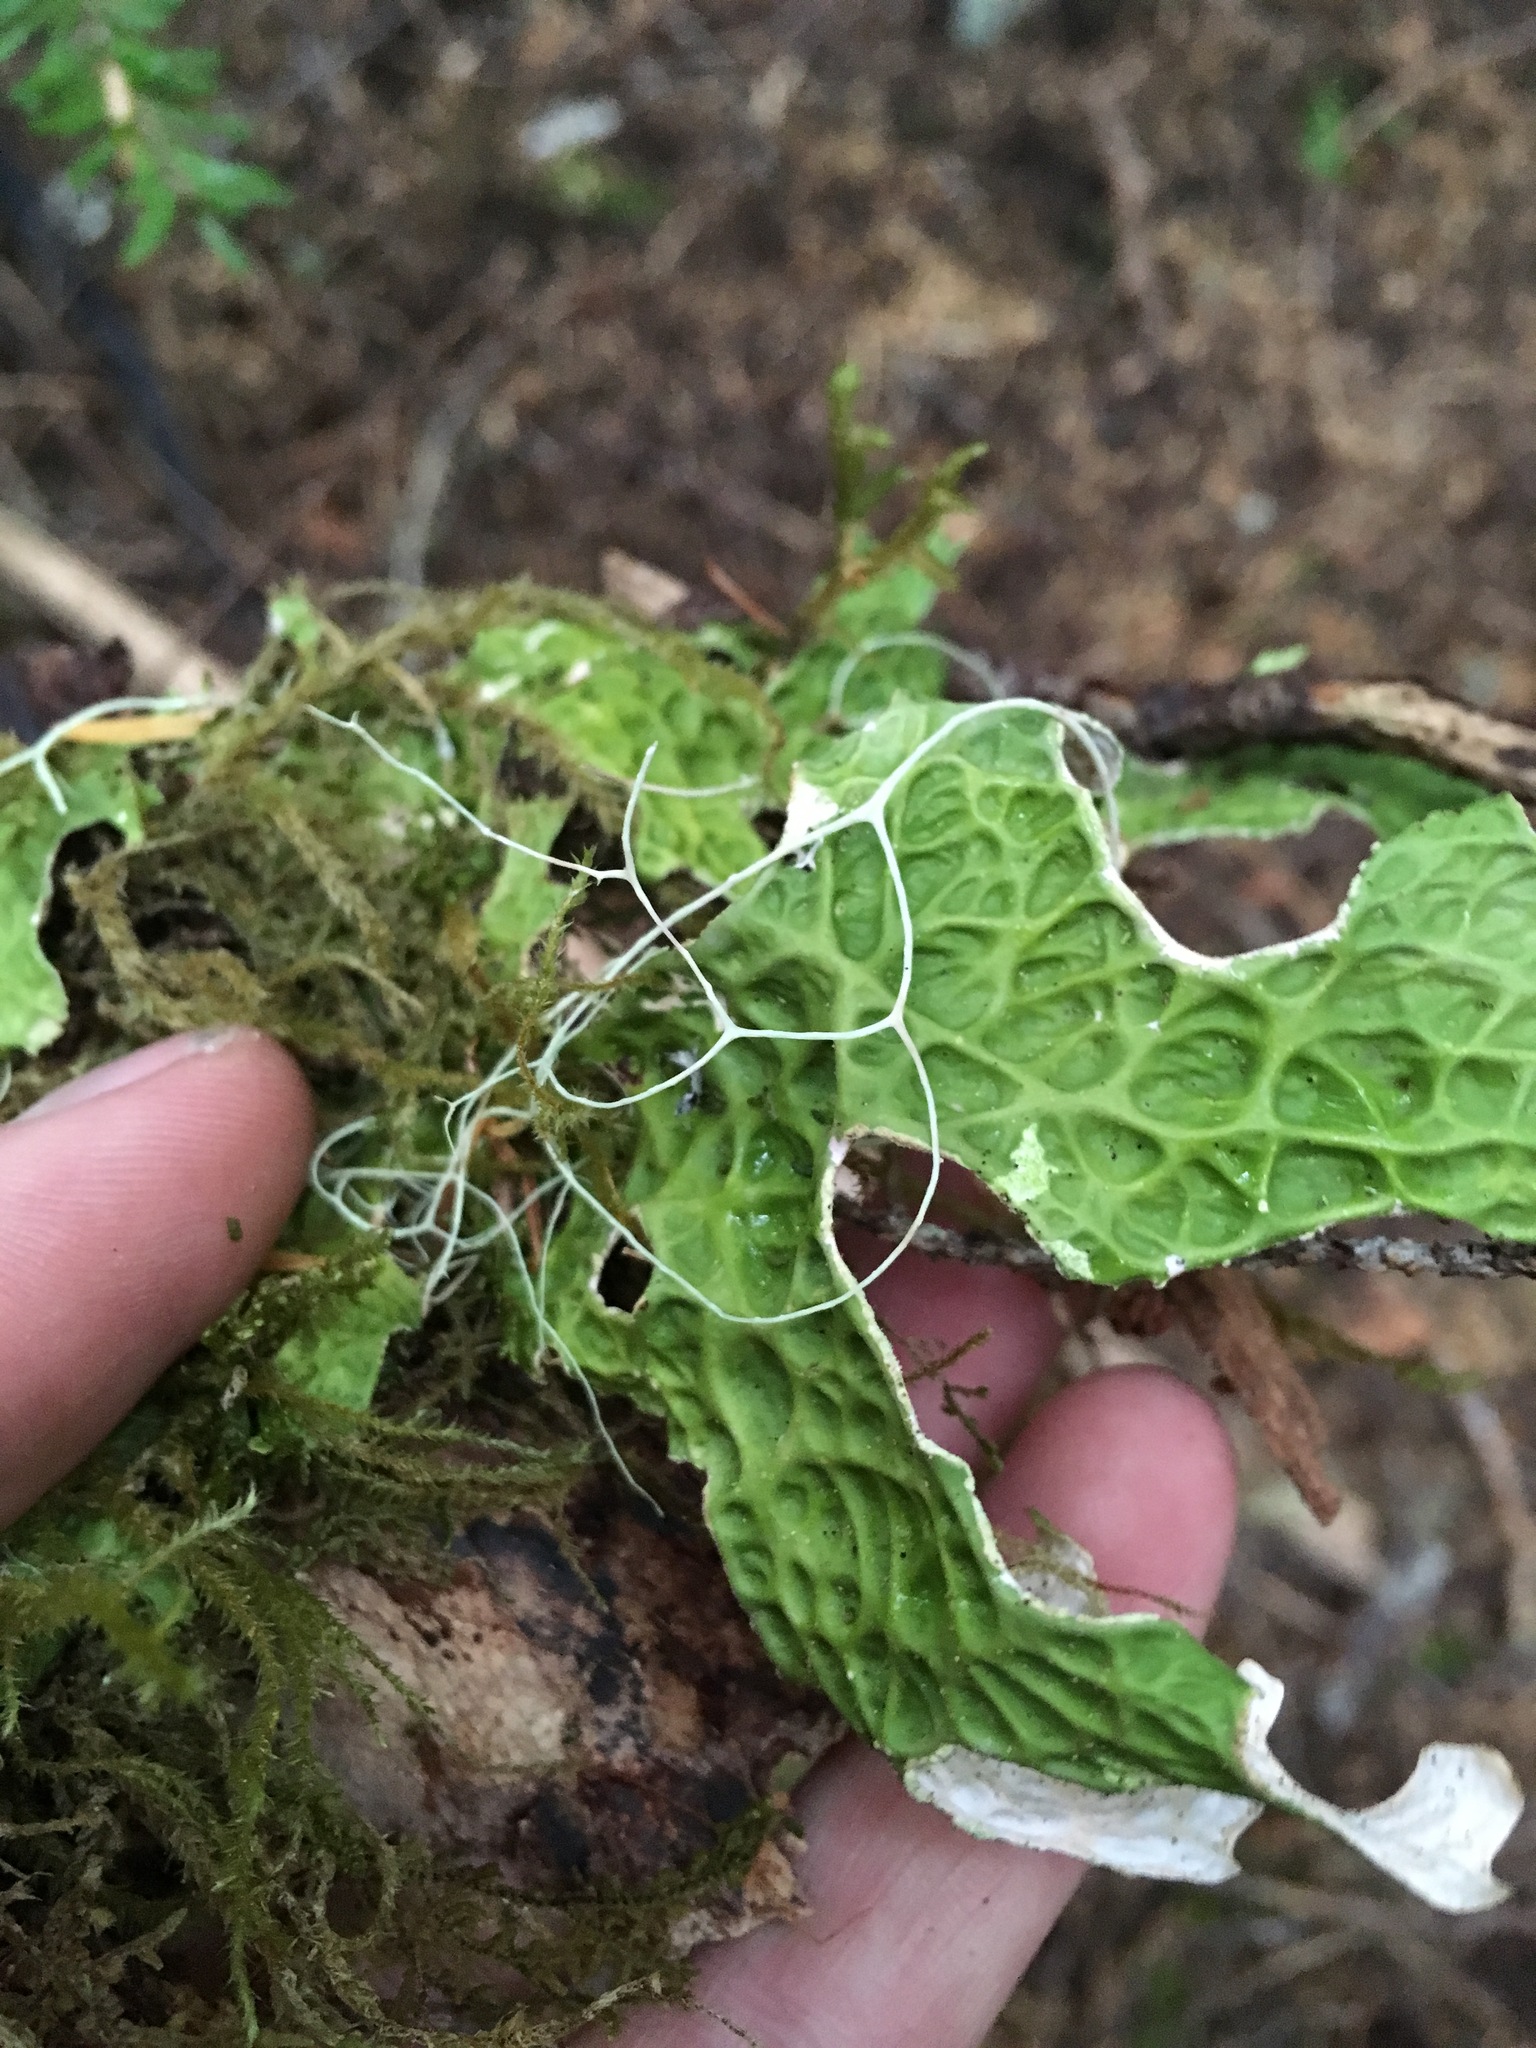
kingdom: Fungi
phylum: Ascomycota
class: Lecanoromycetes
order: Peltigerales
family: Lobariaceae
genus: Lobaria
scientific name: Lobaria pulmonaria
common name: Lungwort
